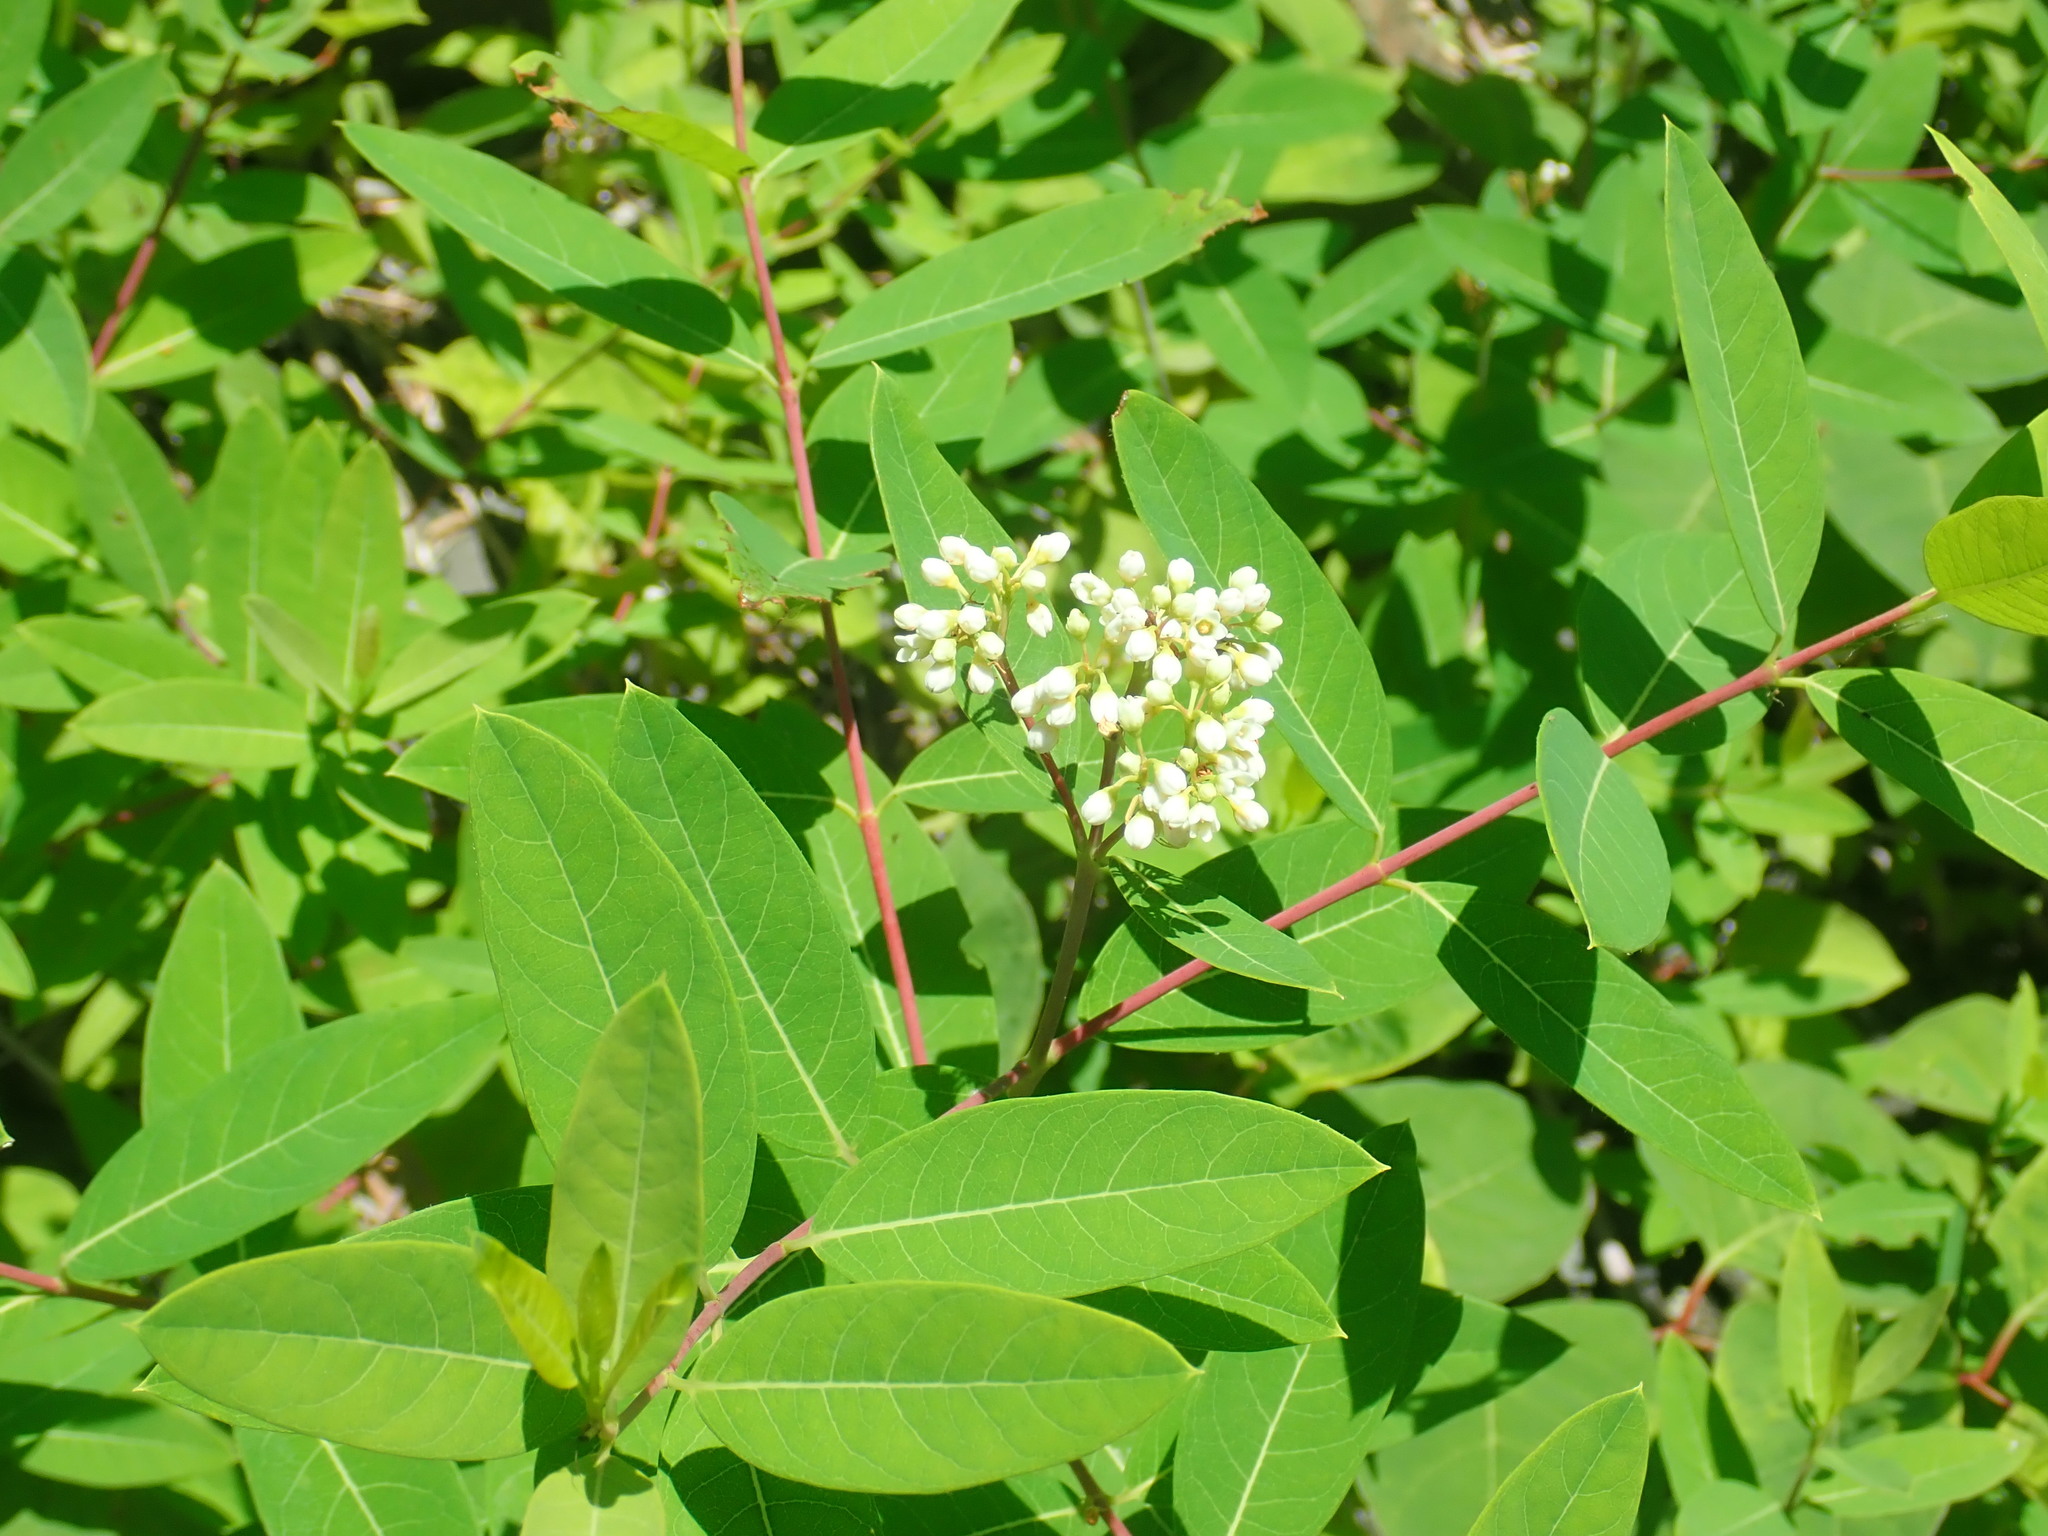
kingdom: Plantae
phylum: Tracheophyta
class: Magnoliopsida
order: Gentianales
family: Apocynaceae
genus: Apocynum
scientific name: Apocynum cannabinum
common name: Hemp dogbane
